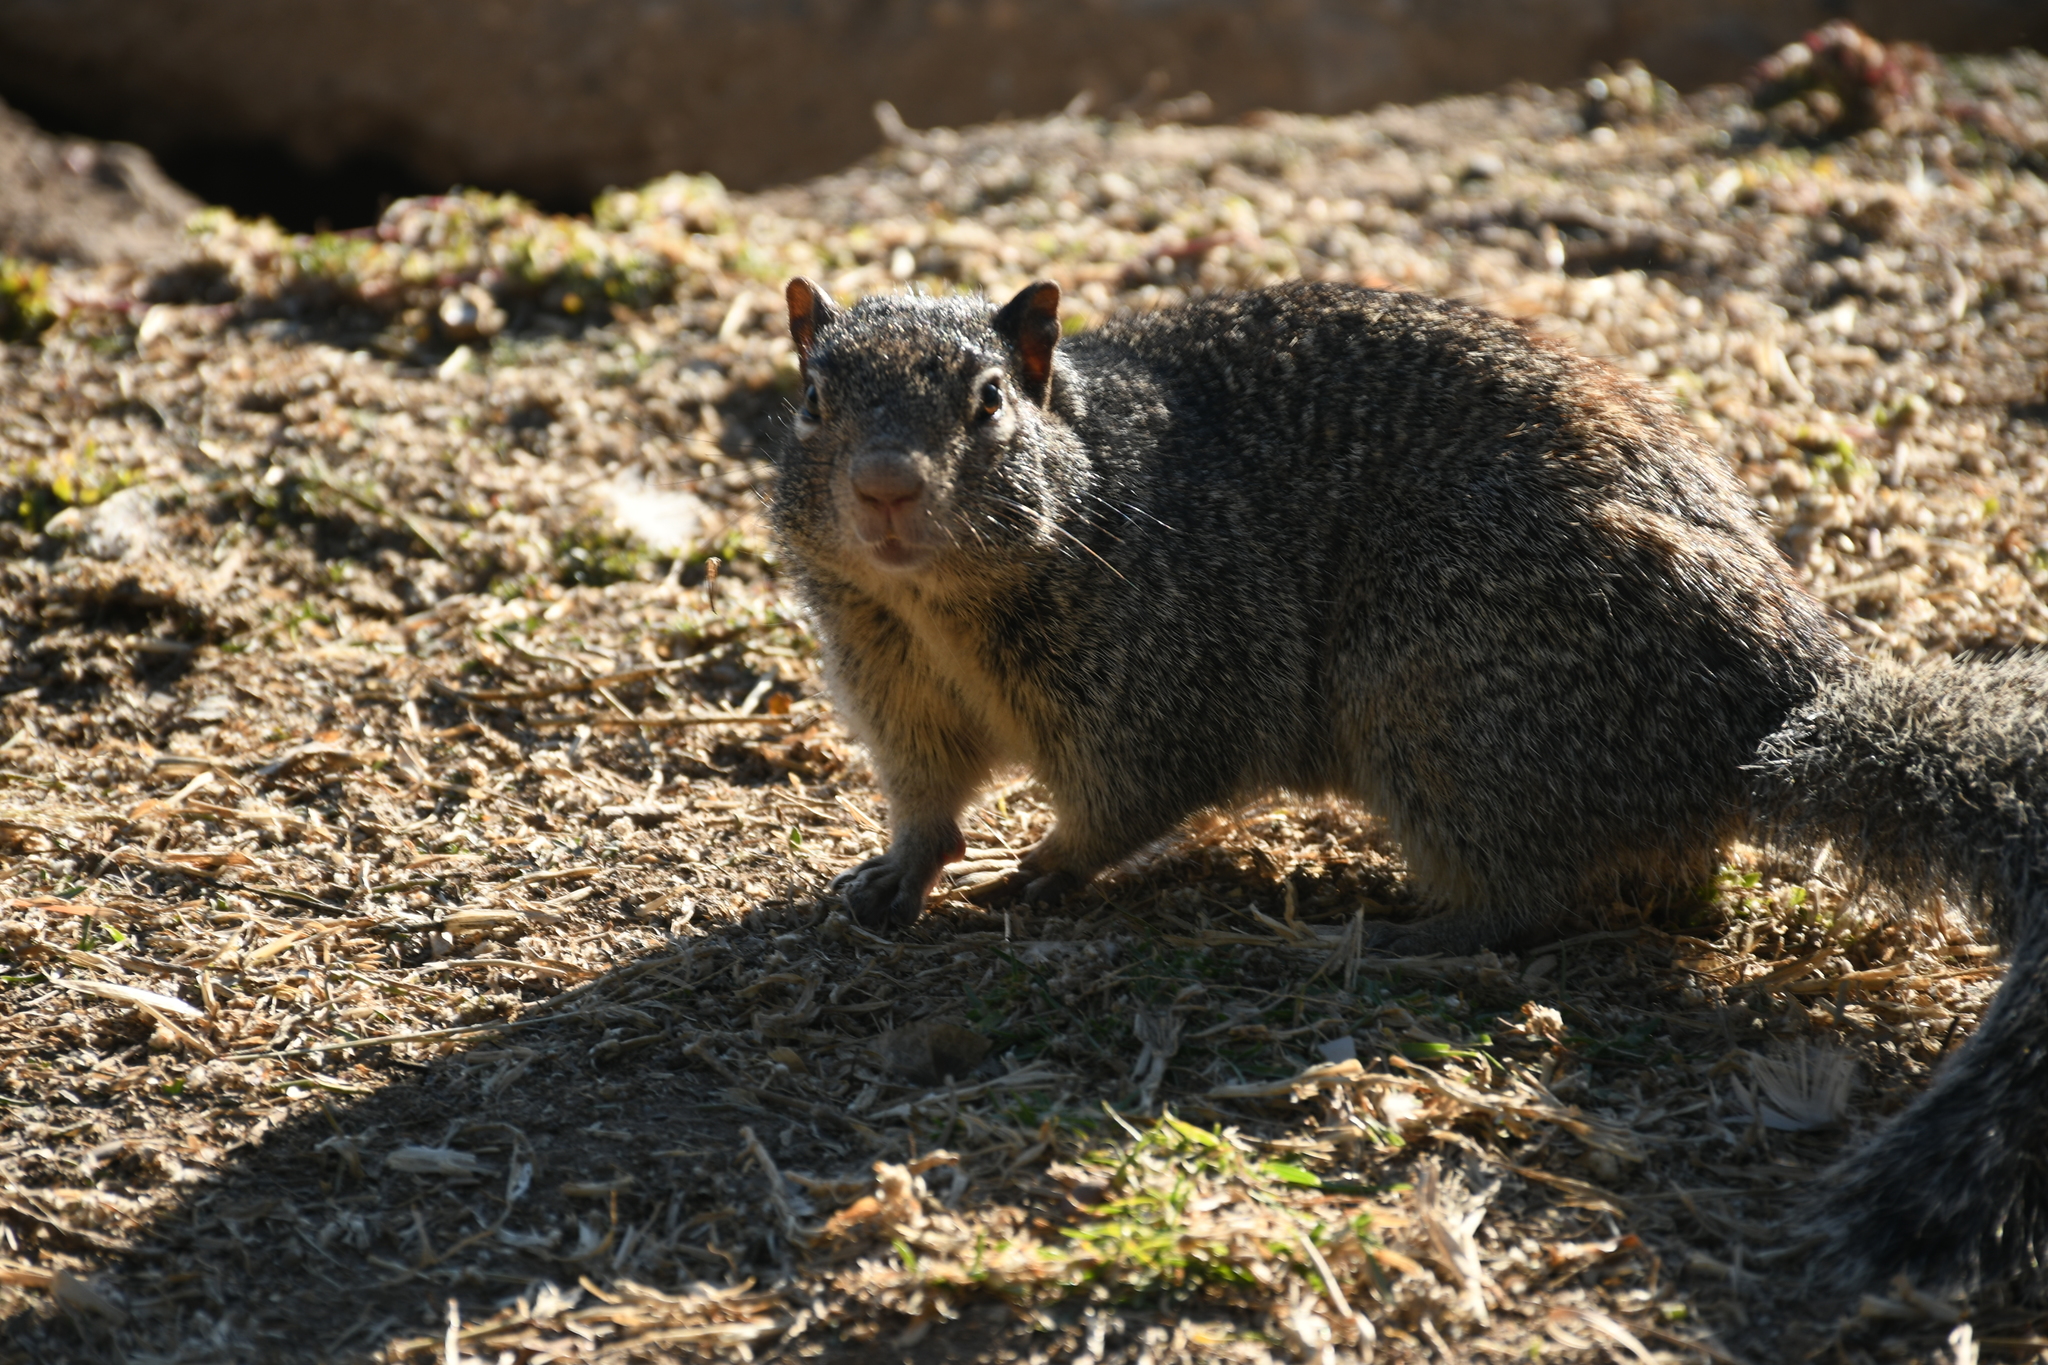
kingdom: Animalia
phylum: Chordata
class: Mammalia
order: Rodentia
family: Sciuridae
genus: Otospermophilus
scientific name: Otospermophilus variegatus
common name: Rock squirrel
